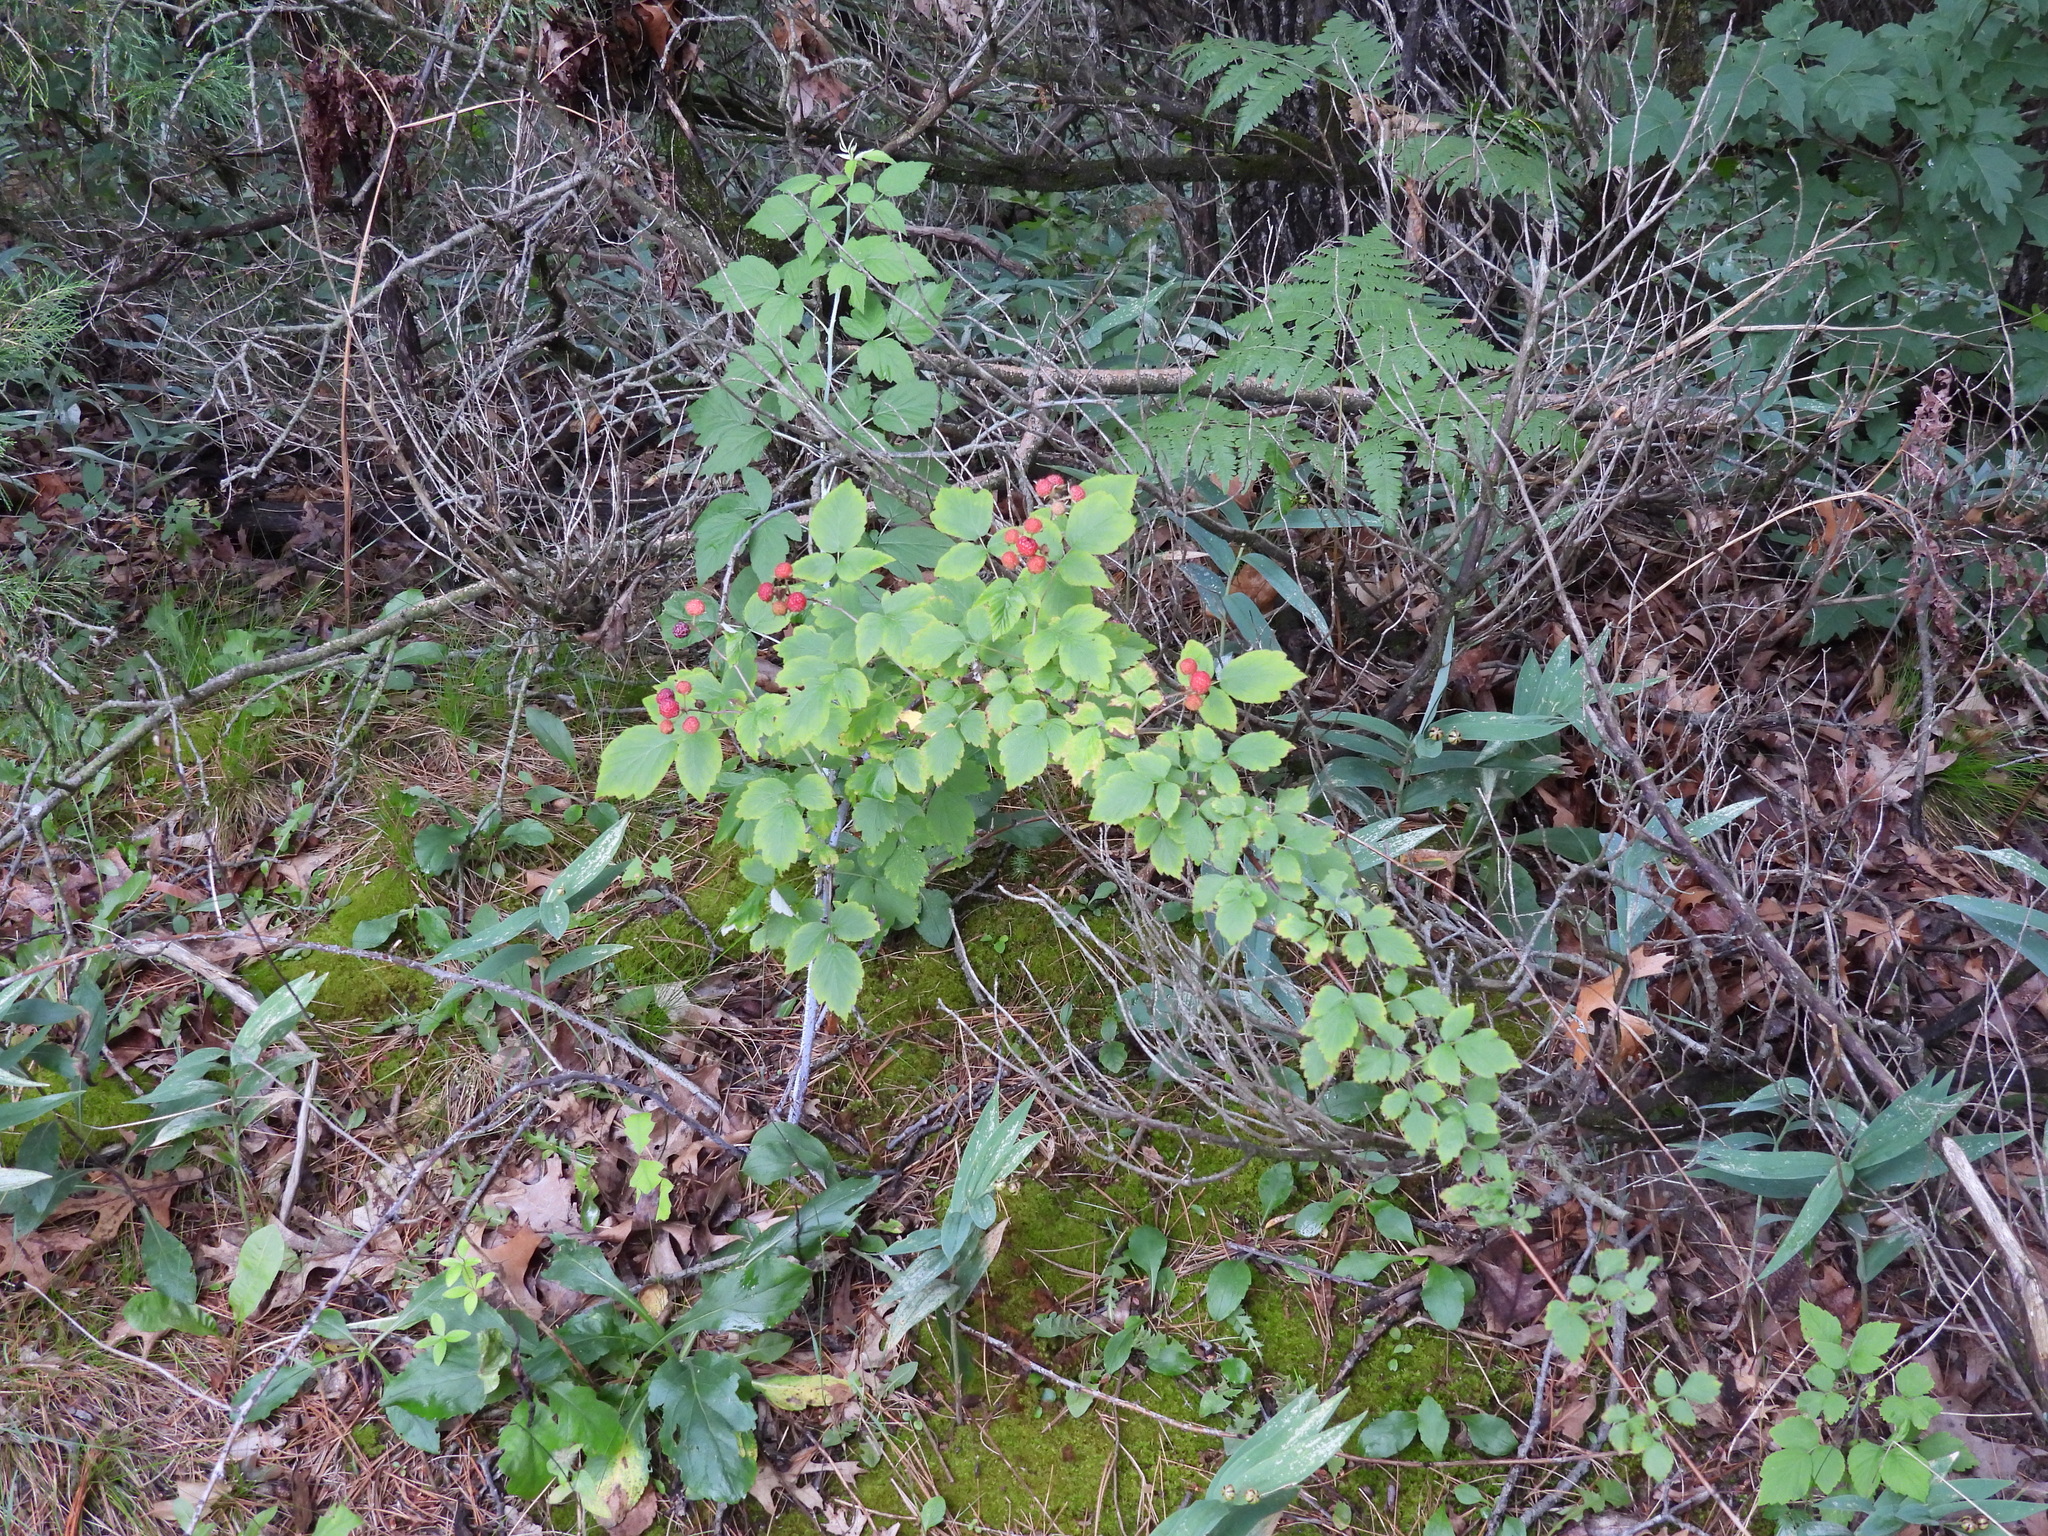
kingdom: Plantae
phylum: Tracheophyta
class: Magnoliopsida
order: Rosales
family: Rosaceae
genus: Rubus
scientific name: Rubus idaeus
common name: Raspberry
